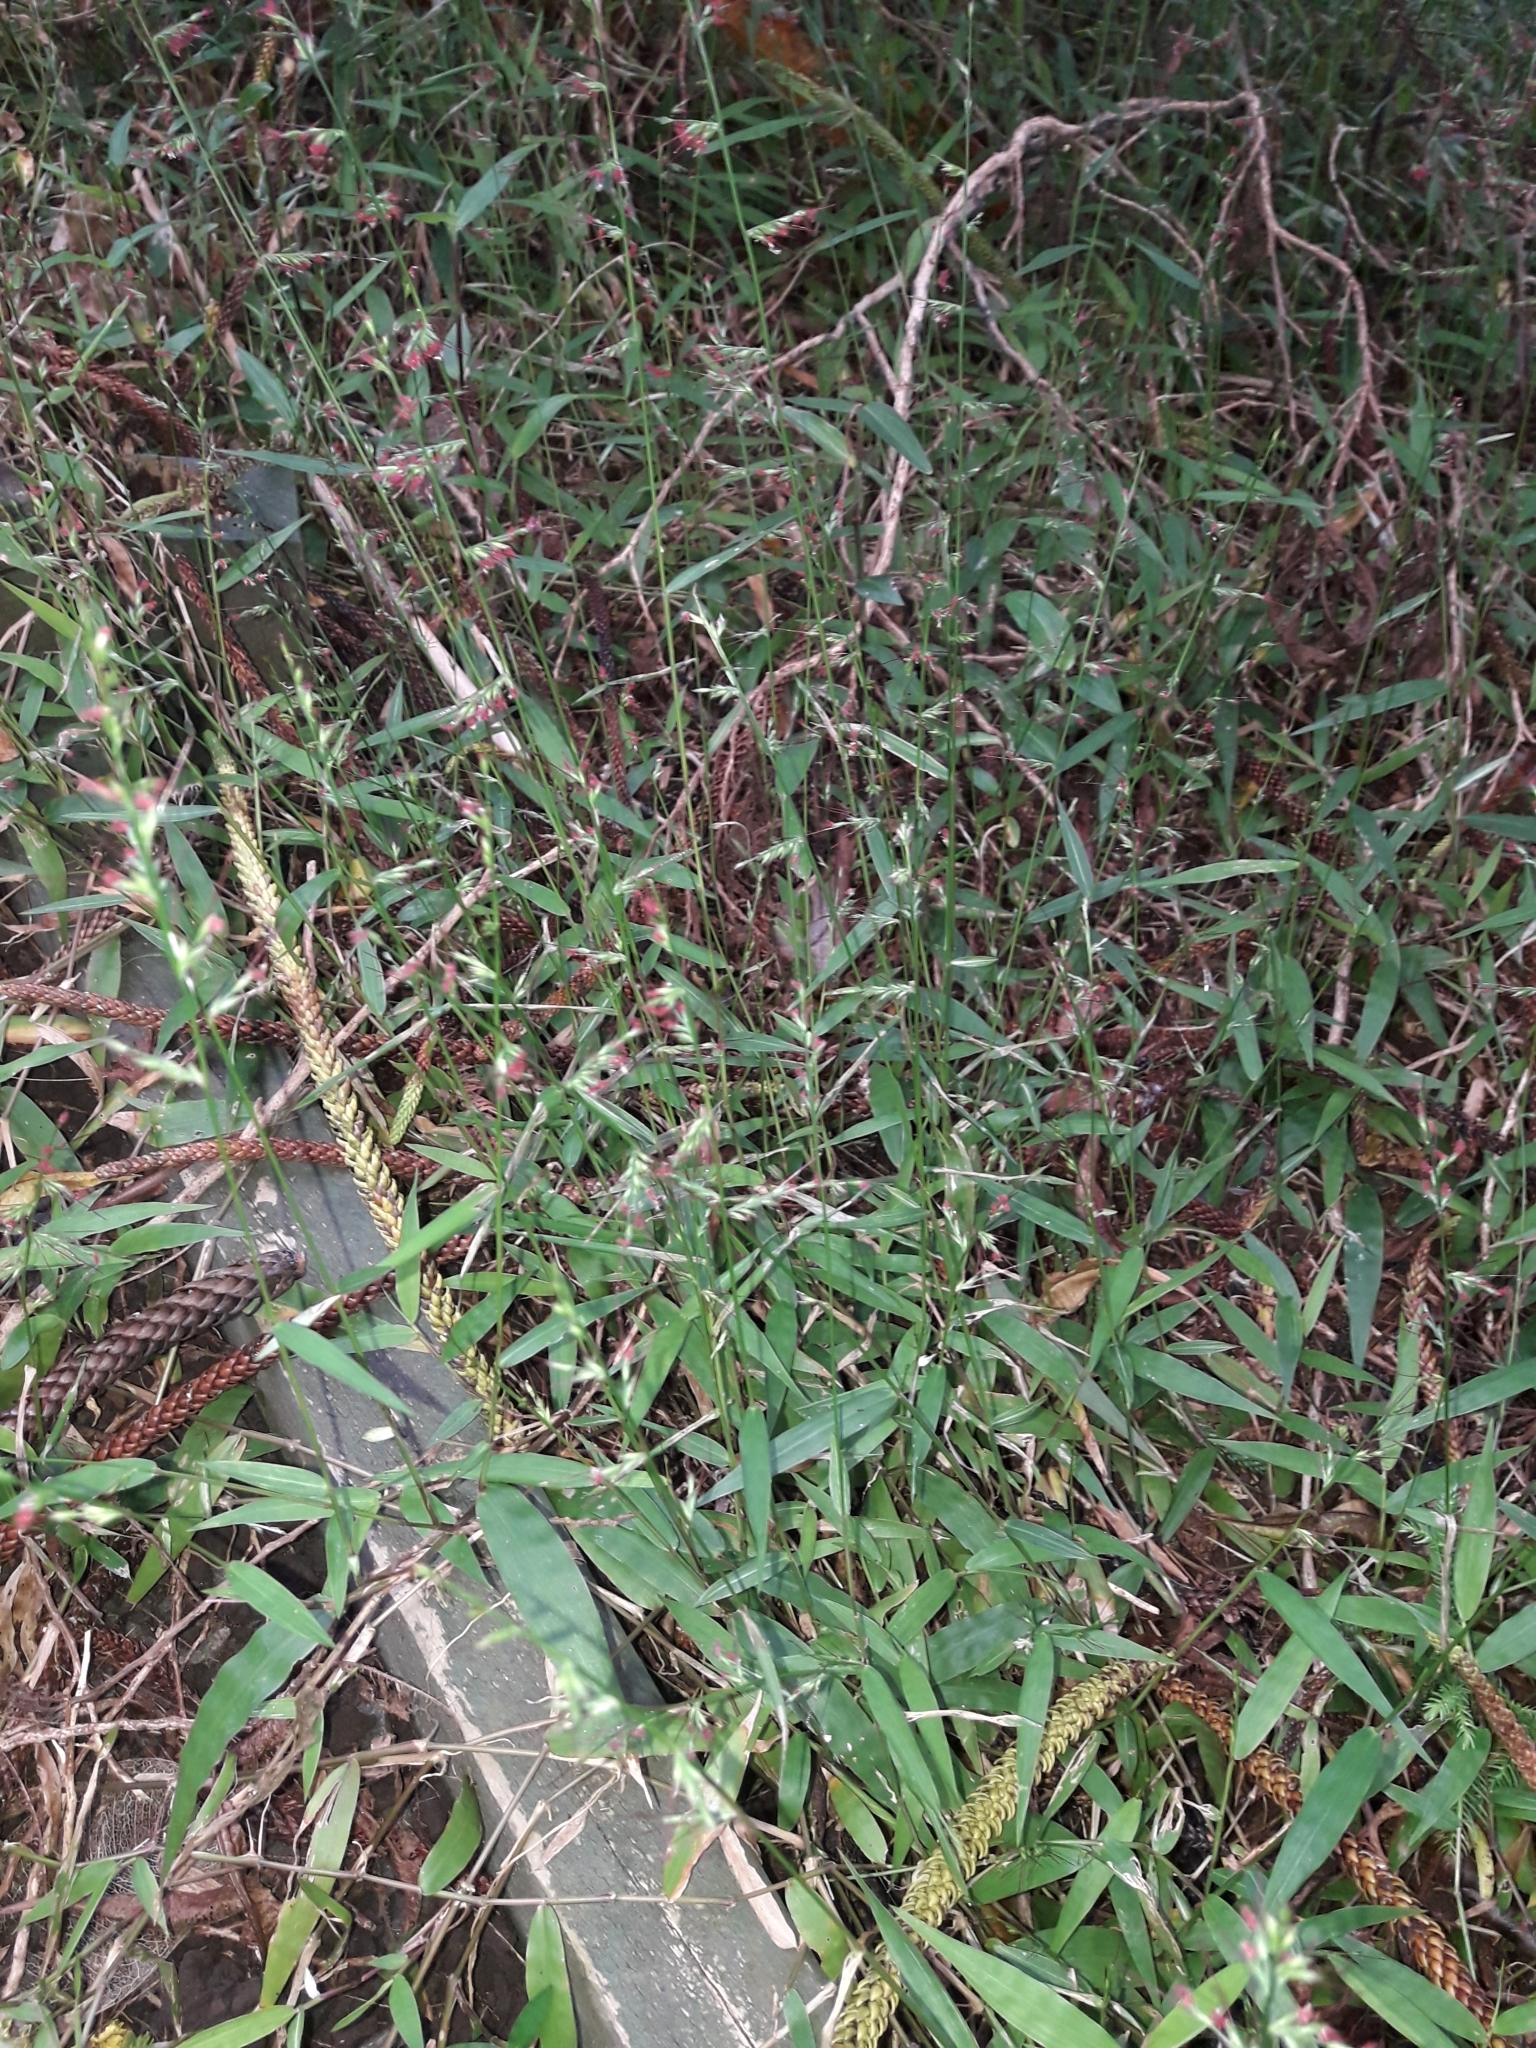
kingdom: Plantae
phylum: Tracheophyta
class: Liliopsida
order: Poales
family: Poaceae
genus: Oplismenus
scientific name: Oplismenus hirtellus
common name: Basketgrass
